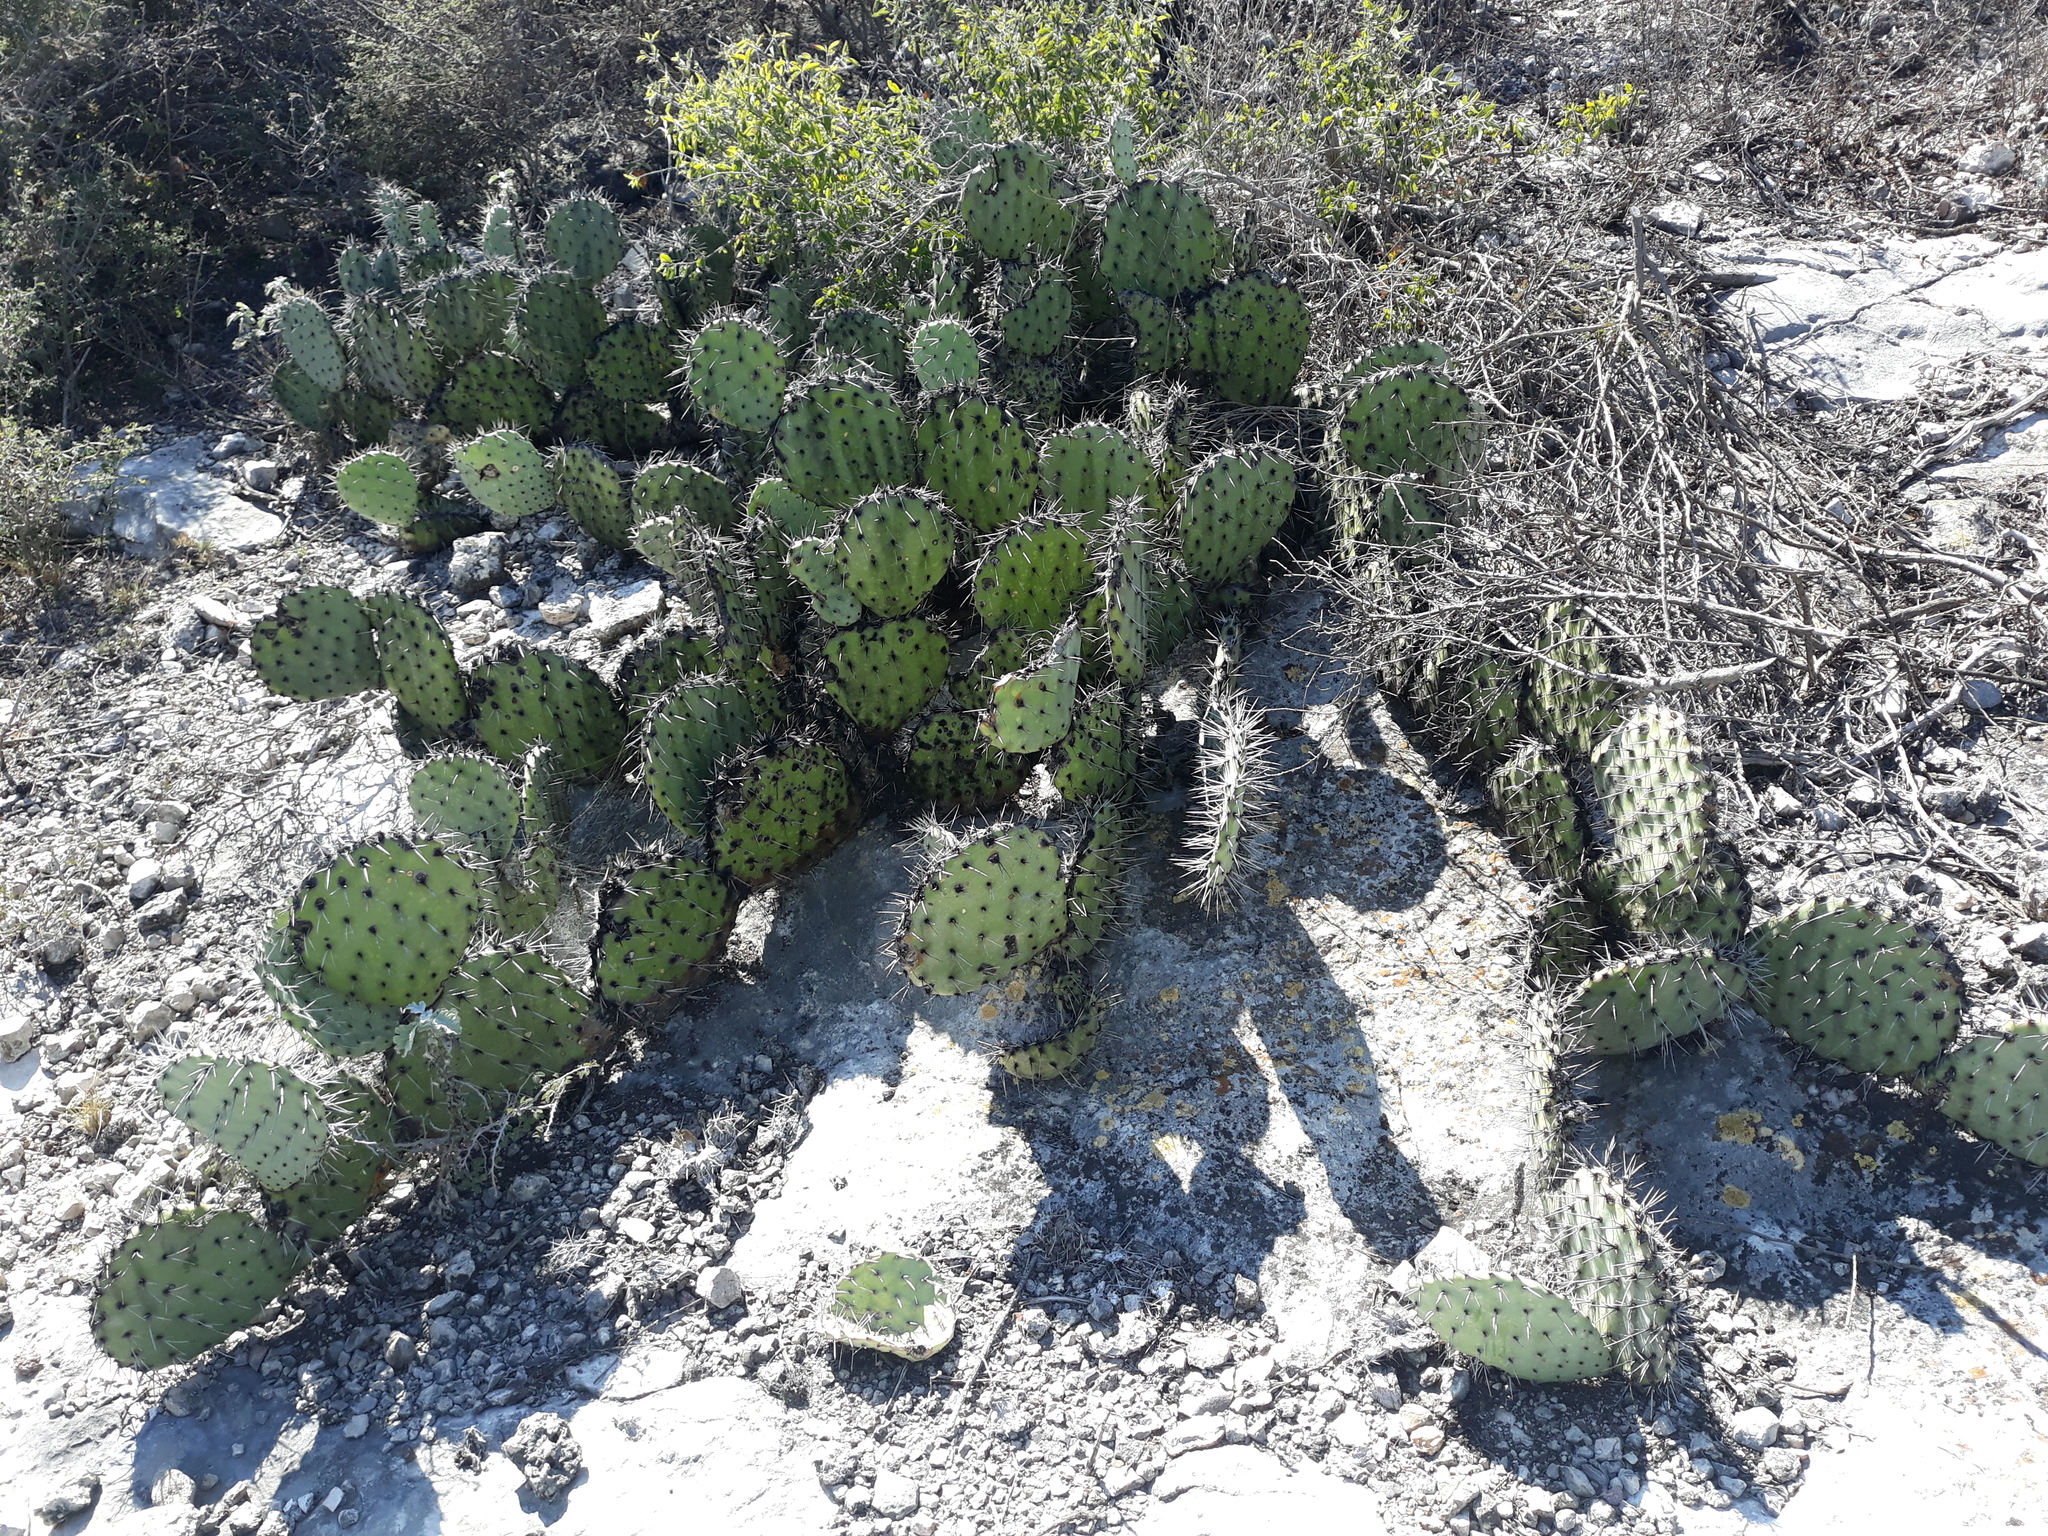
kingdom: Plantae
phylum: Tracheophyta
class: Magnoliopsida
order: Caryophyllales
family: Cactaceae
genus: Opuntia
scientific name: Opuntia stenopetala
